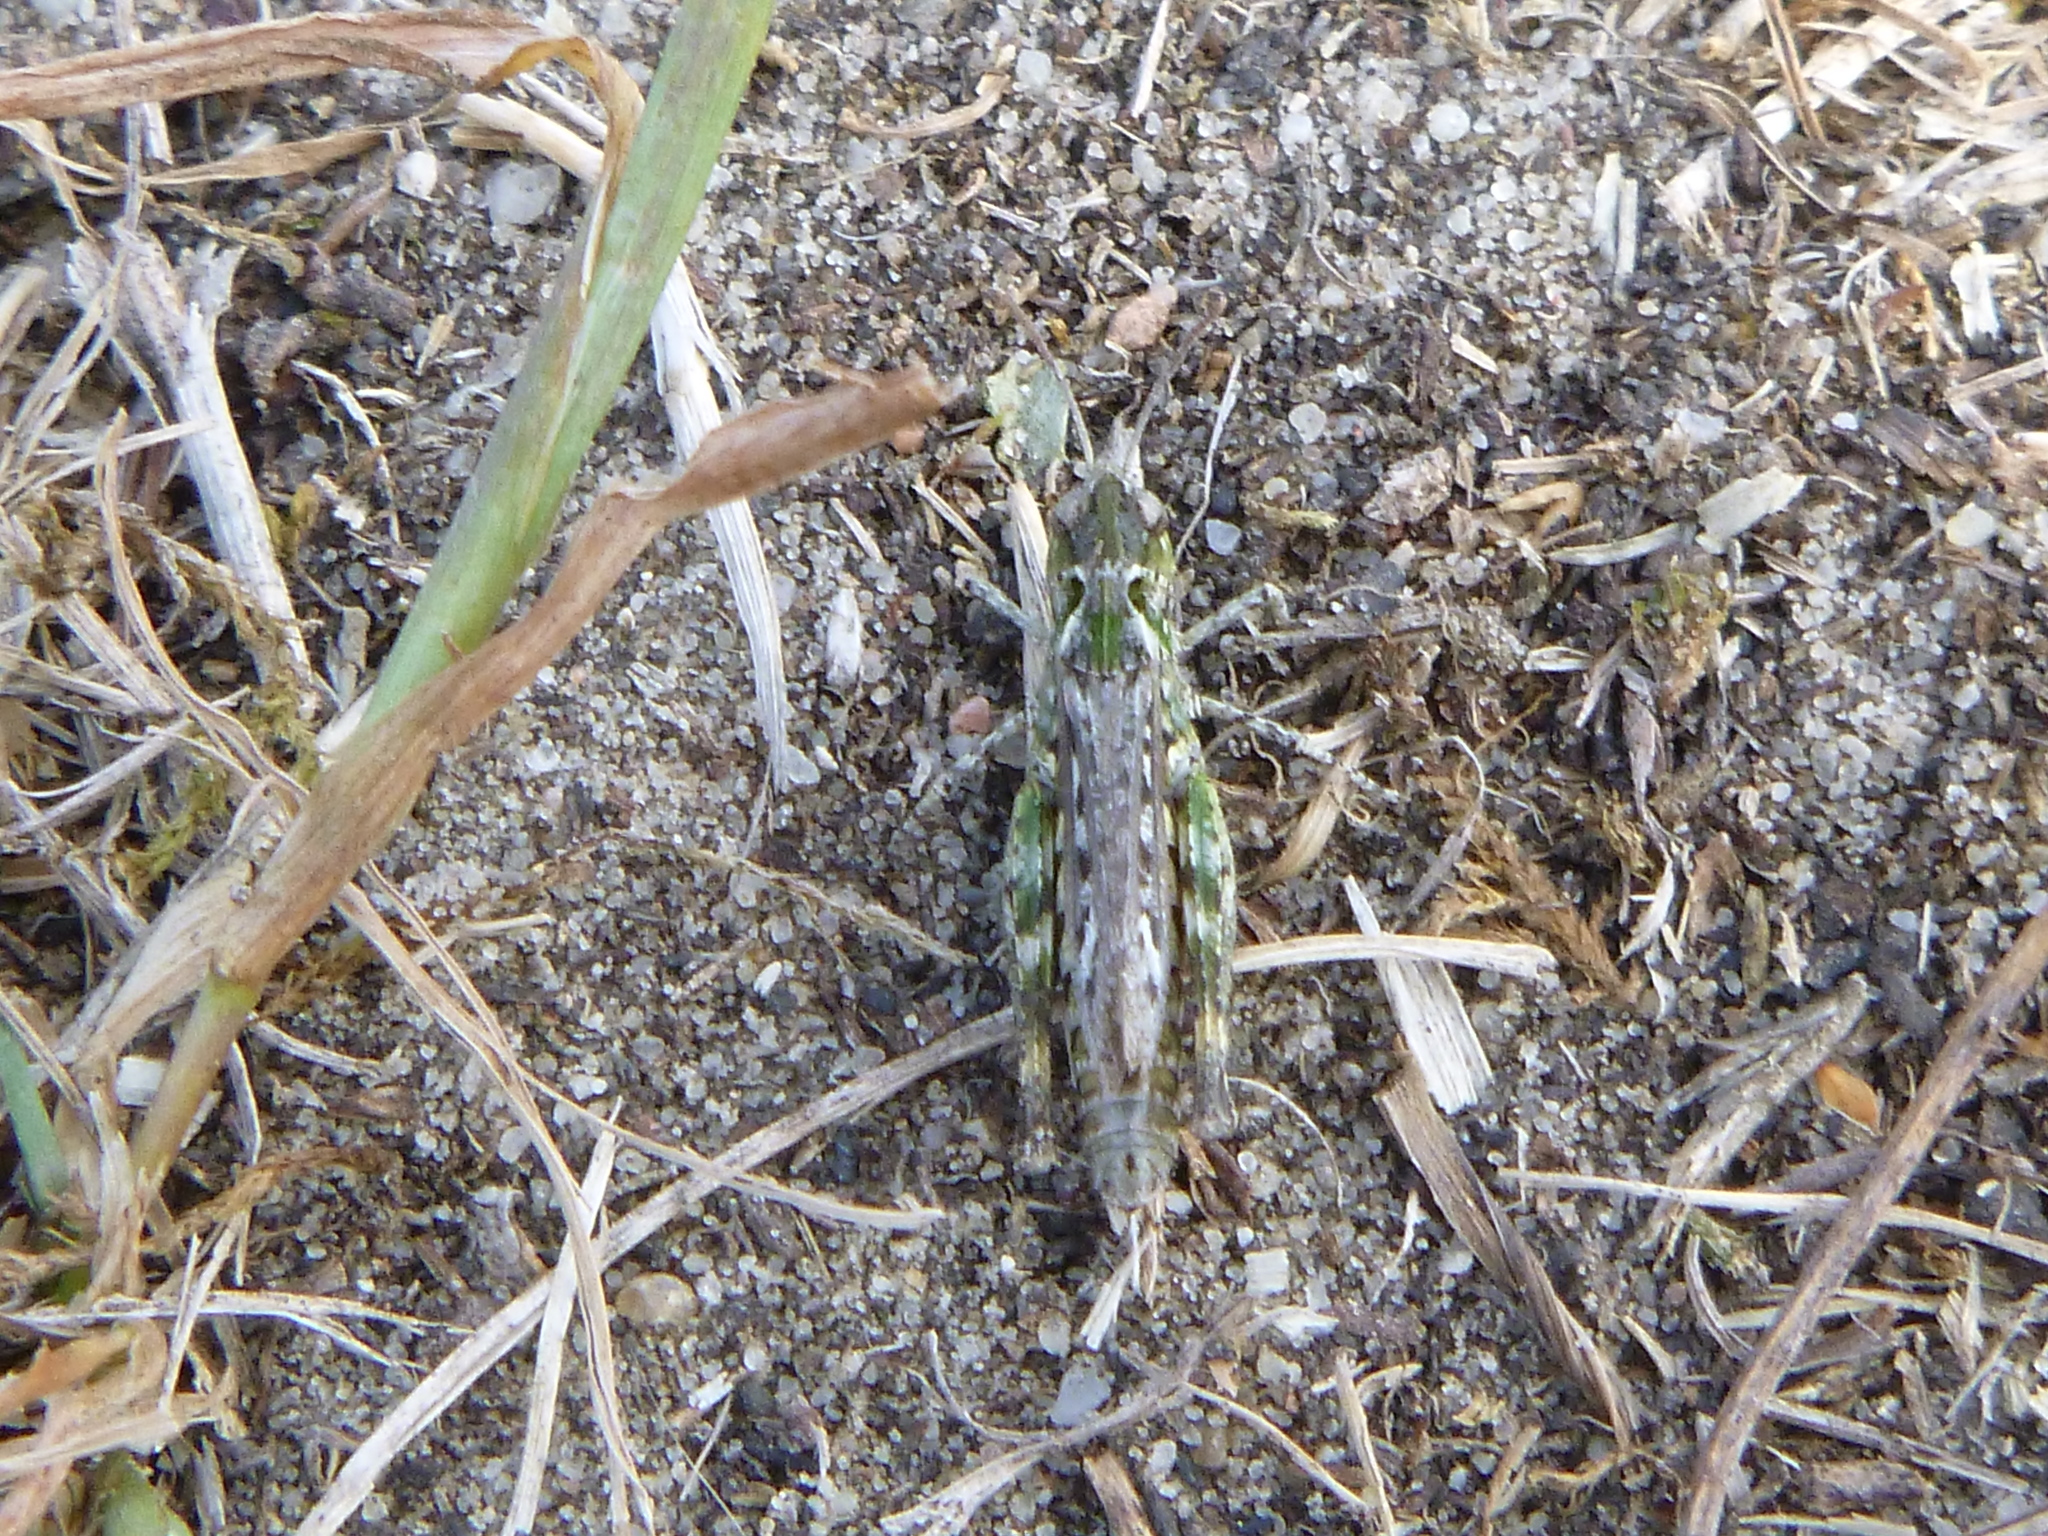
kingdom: Animalia
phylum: Arthropoda
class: Insecta
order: Orthoptera
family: Acrididae
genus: Myrmeleotettix
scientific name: Myrmeleotettix maculatus
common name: Mottled grasshopper
